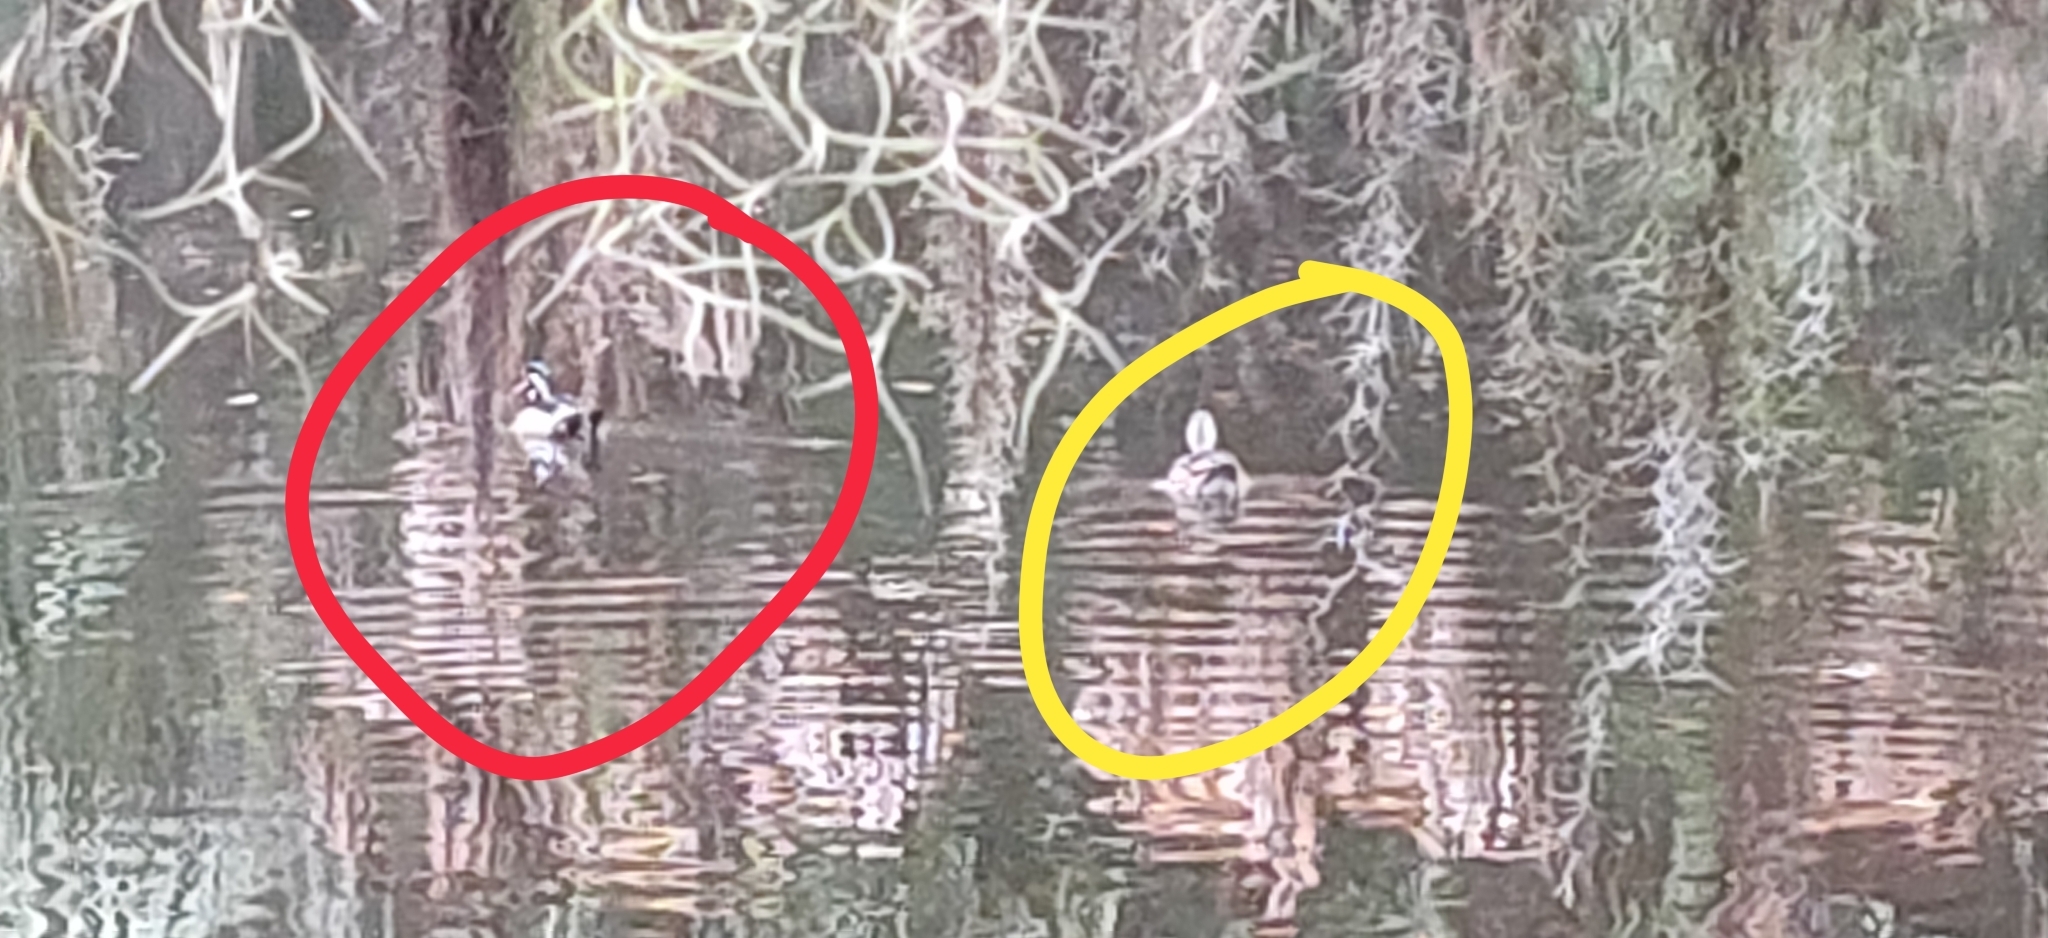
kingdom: Animalia
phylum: Chordata
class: Aves
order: Anseriformes
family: Anatidae
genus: Aix
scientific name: Aix sponsa
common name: Wood duck
